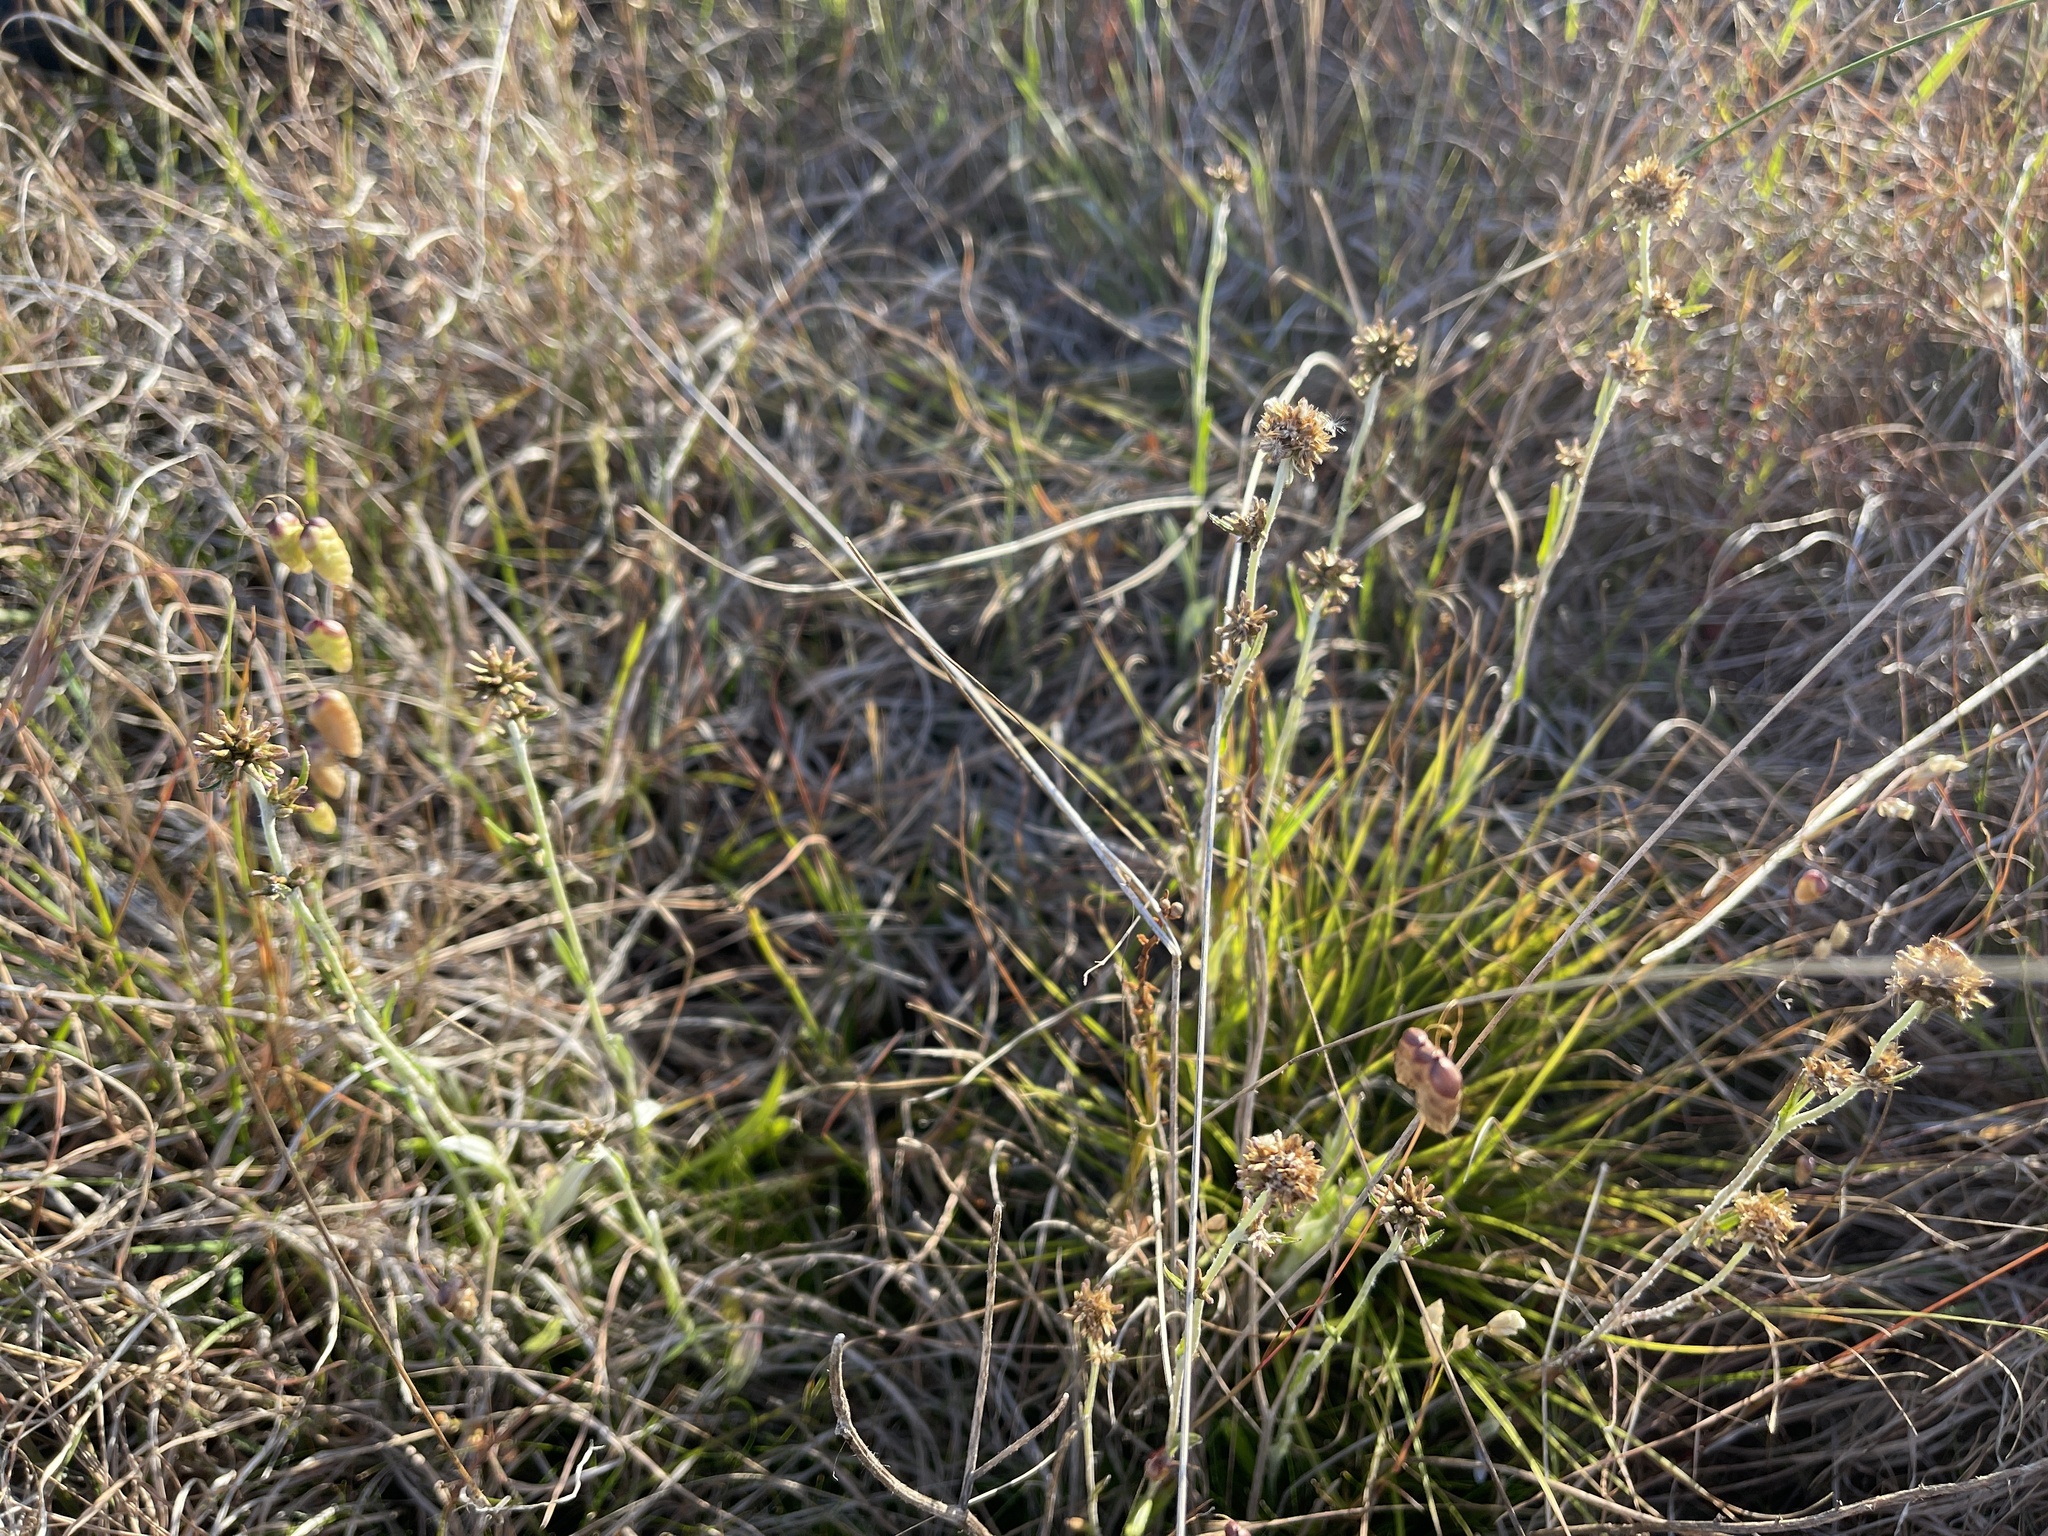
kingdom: Plantae
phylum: Tracheophyta
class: Magnoliopsida
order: Asterales
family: Asteraceae
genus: Euchiton
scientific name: Euchiton japonicus
